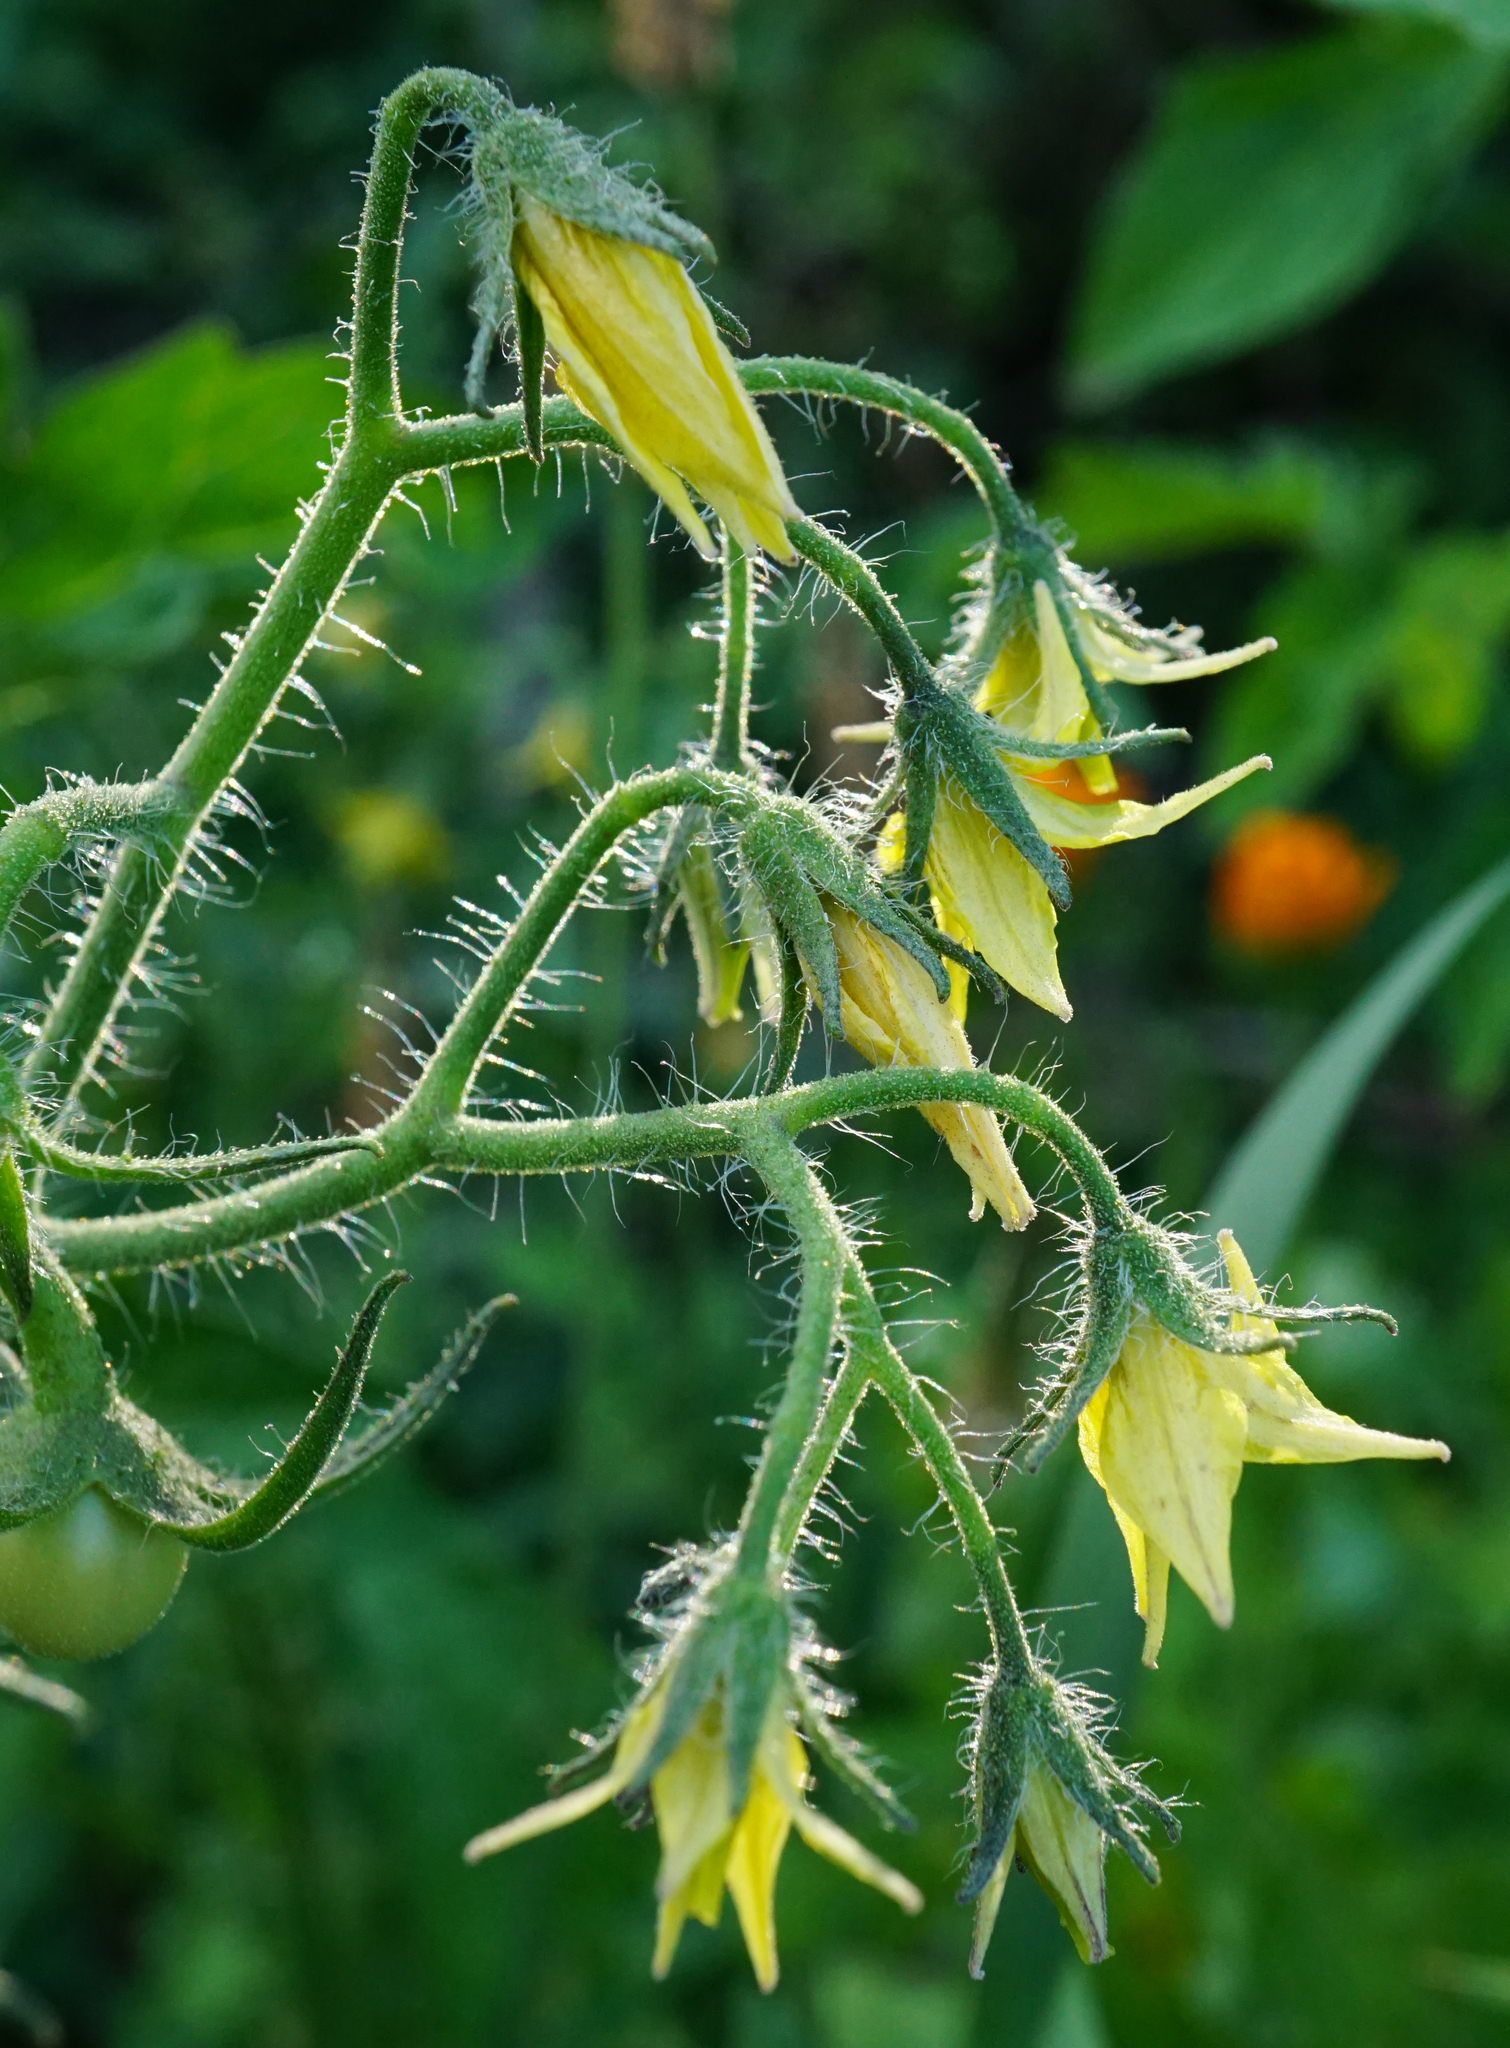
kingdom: Plantae
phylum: Tracheophyta
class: Magnoliopsida
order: Solanales
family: Solanaceae
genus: Solanum
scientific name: Solanum lycopersicum
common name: Garden tomato
